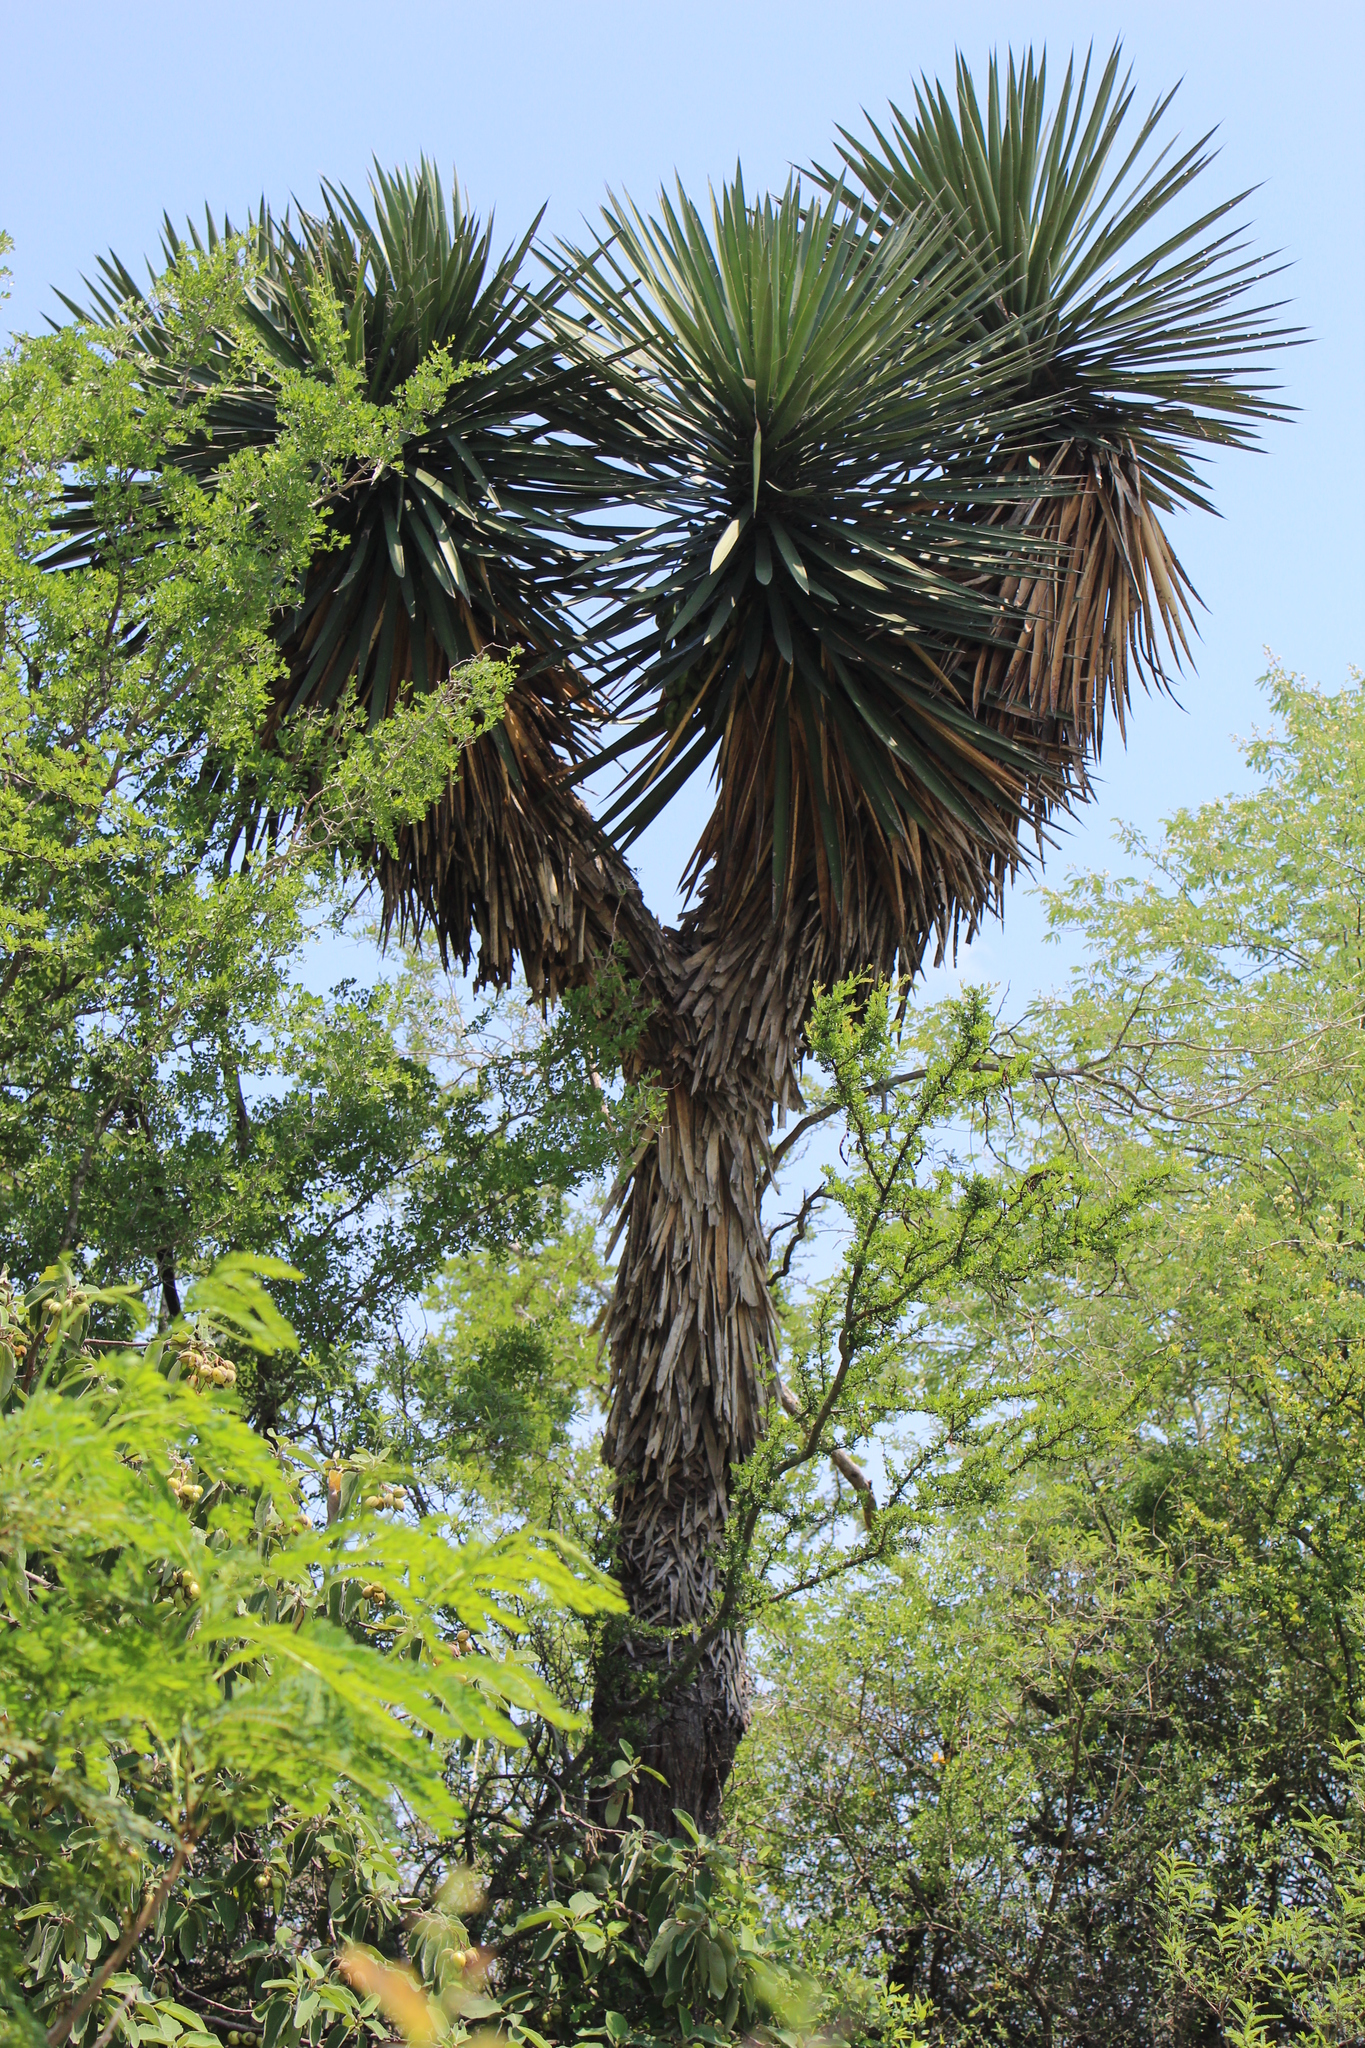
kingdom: Plantae
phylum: Tracheophyta
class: Liliopsida
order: Asparagales
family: Asparagaceae
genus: Yucca
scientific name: Yucca filifera
